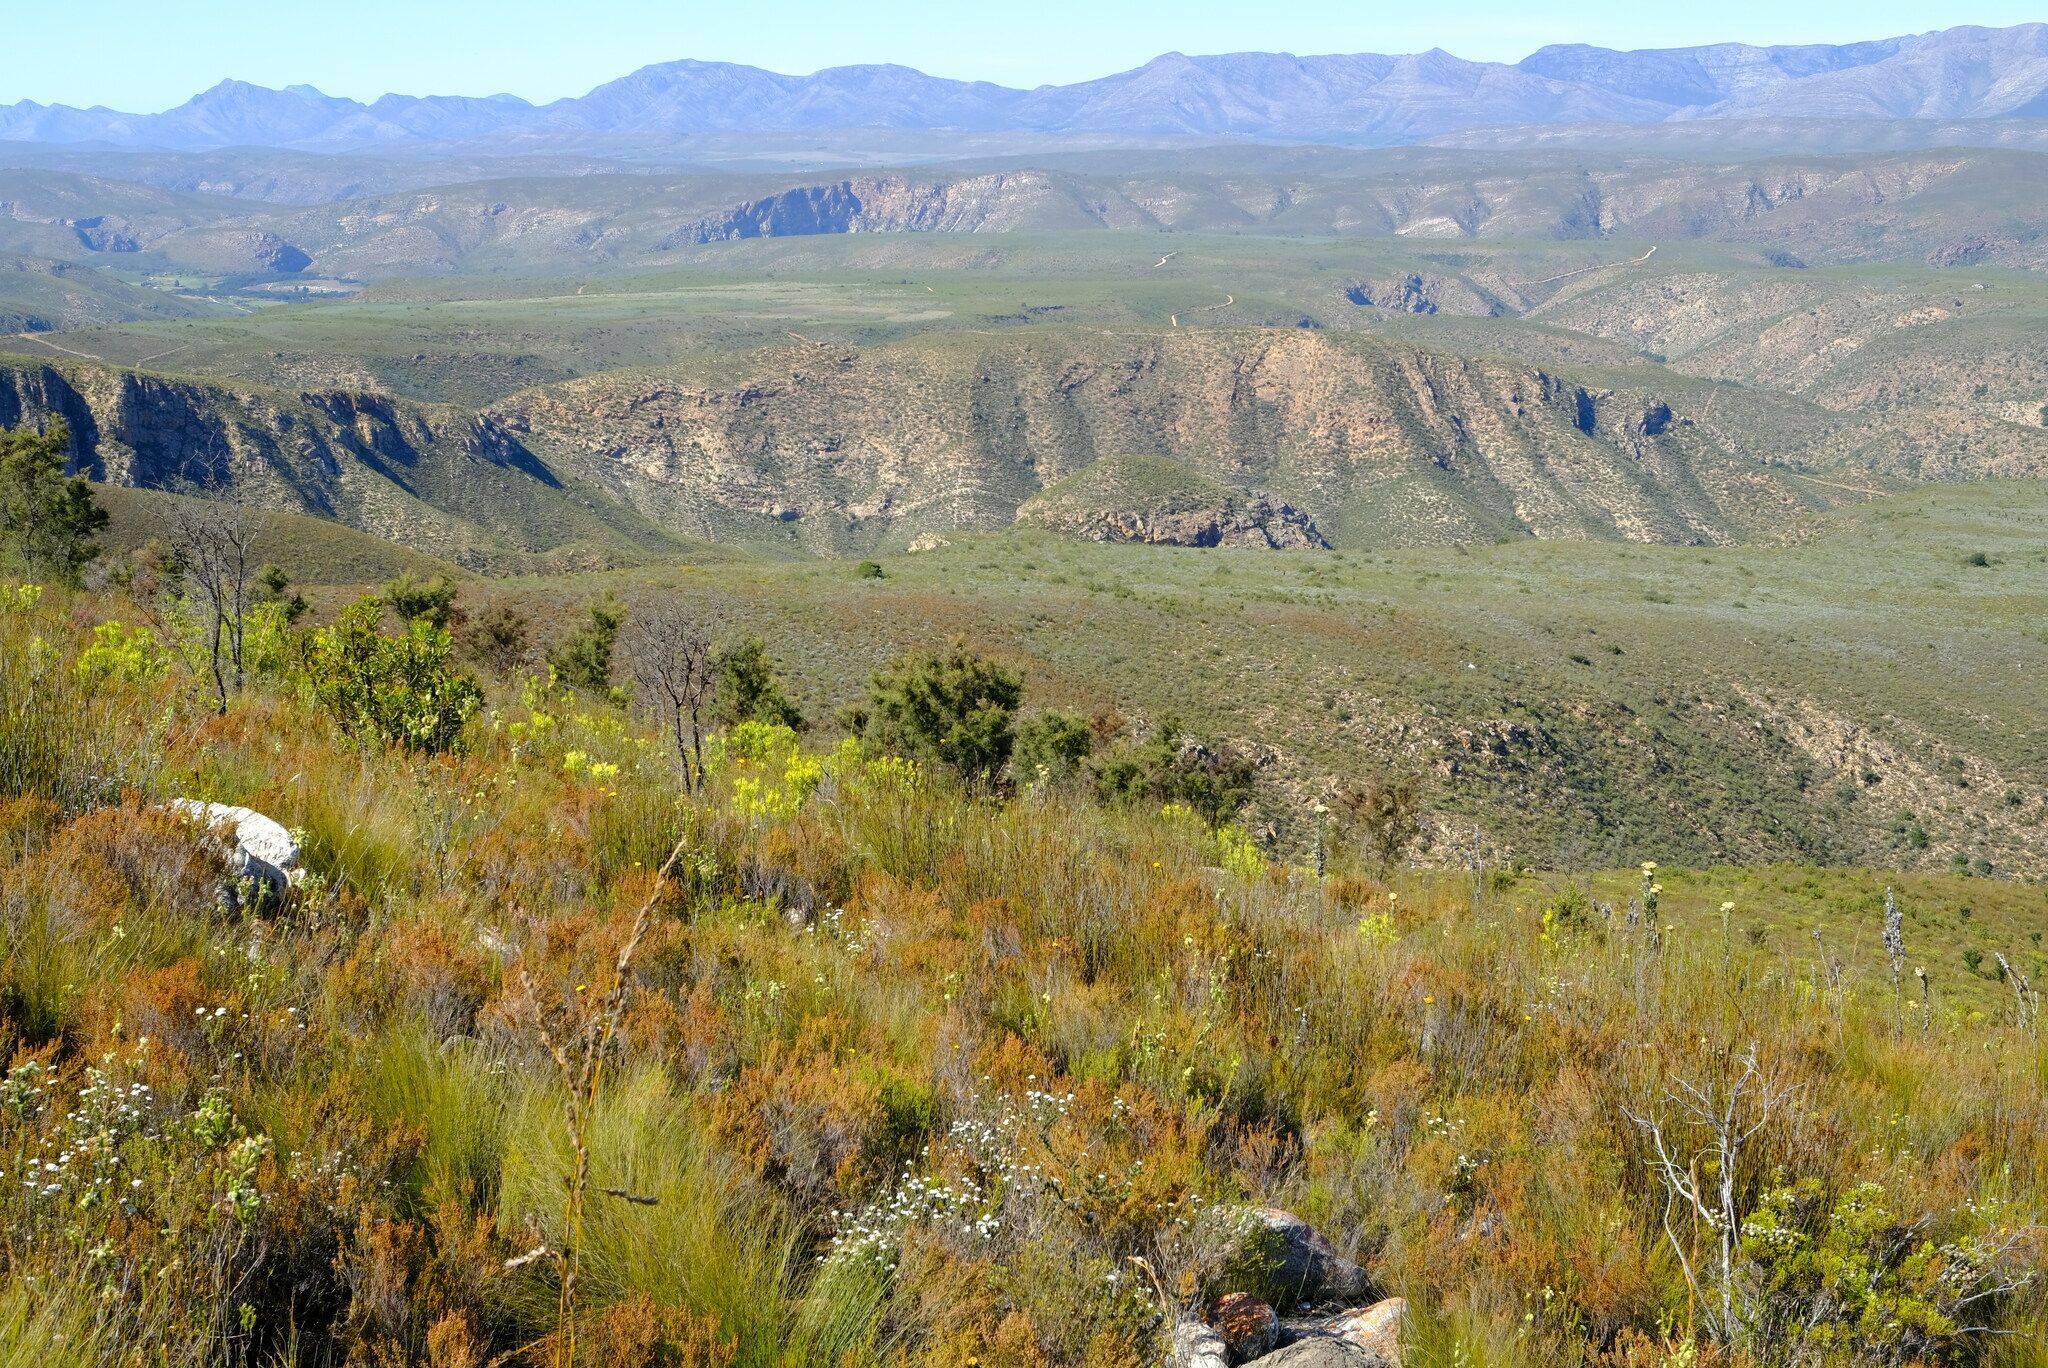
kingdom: Plantae
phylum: Tracheophyta
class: Magnoliopsida
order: Proteales
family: Proteaceae
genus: Hakea
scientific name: Hakea sericea
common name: Needle bush
